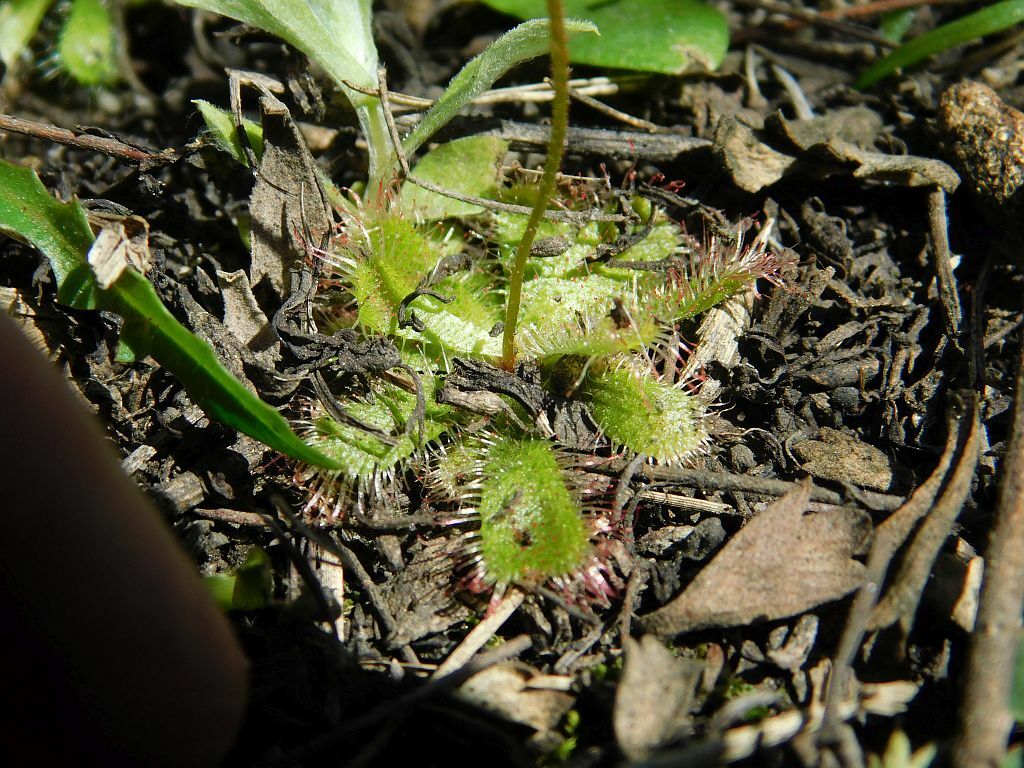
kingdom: Plantae
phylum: Tracheophyta
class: Magnoliopsida
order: Caryophyllales
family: Droseraceae
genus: Drosera
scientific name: Drosera trinervia
